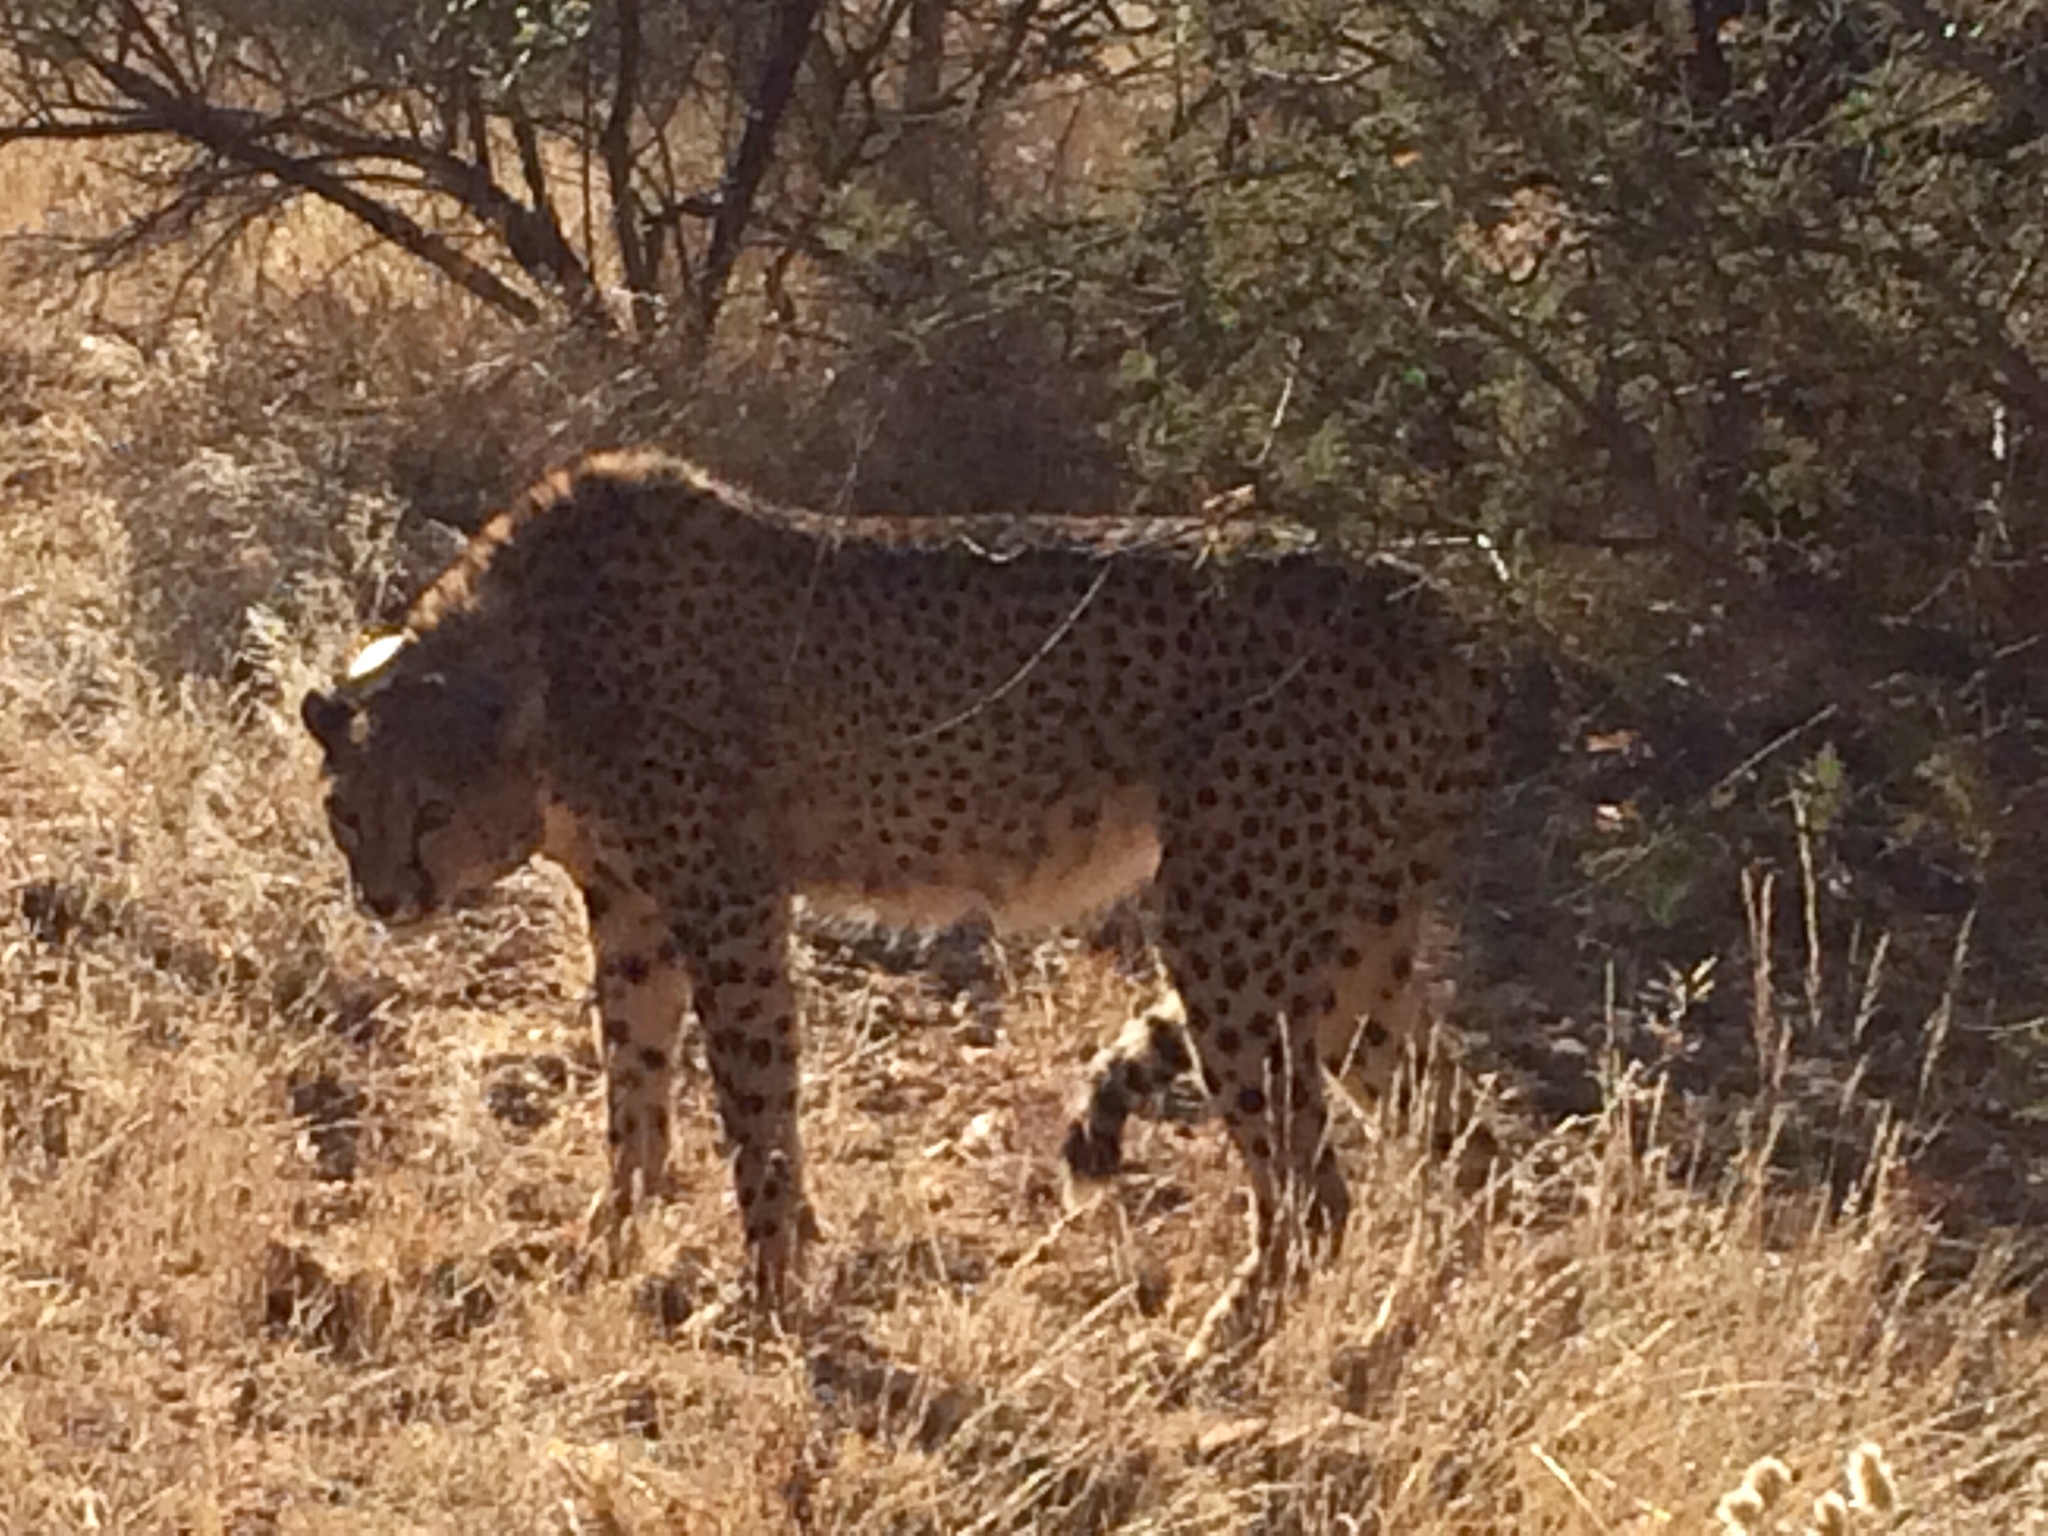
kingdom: Animalia
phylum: Chordata
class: Mammalia
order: Carnivora
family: Felidae
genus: Acinonyx
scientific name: Acinonyx jubatus
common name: Cheetah
